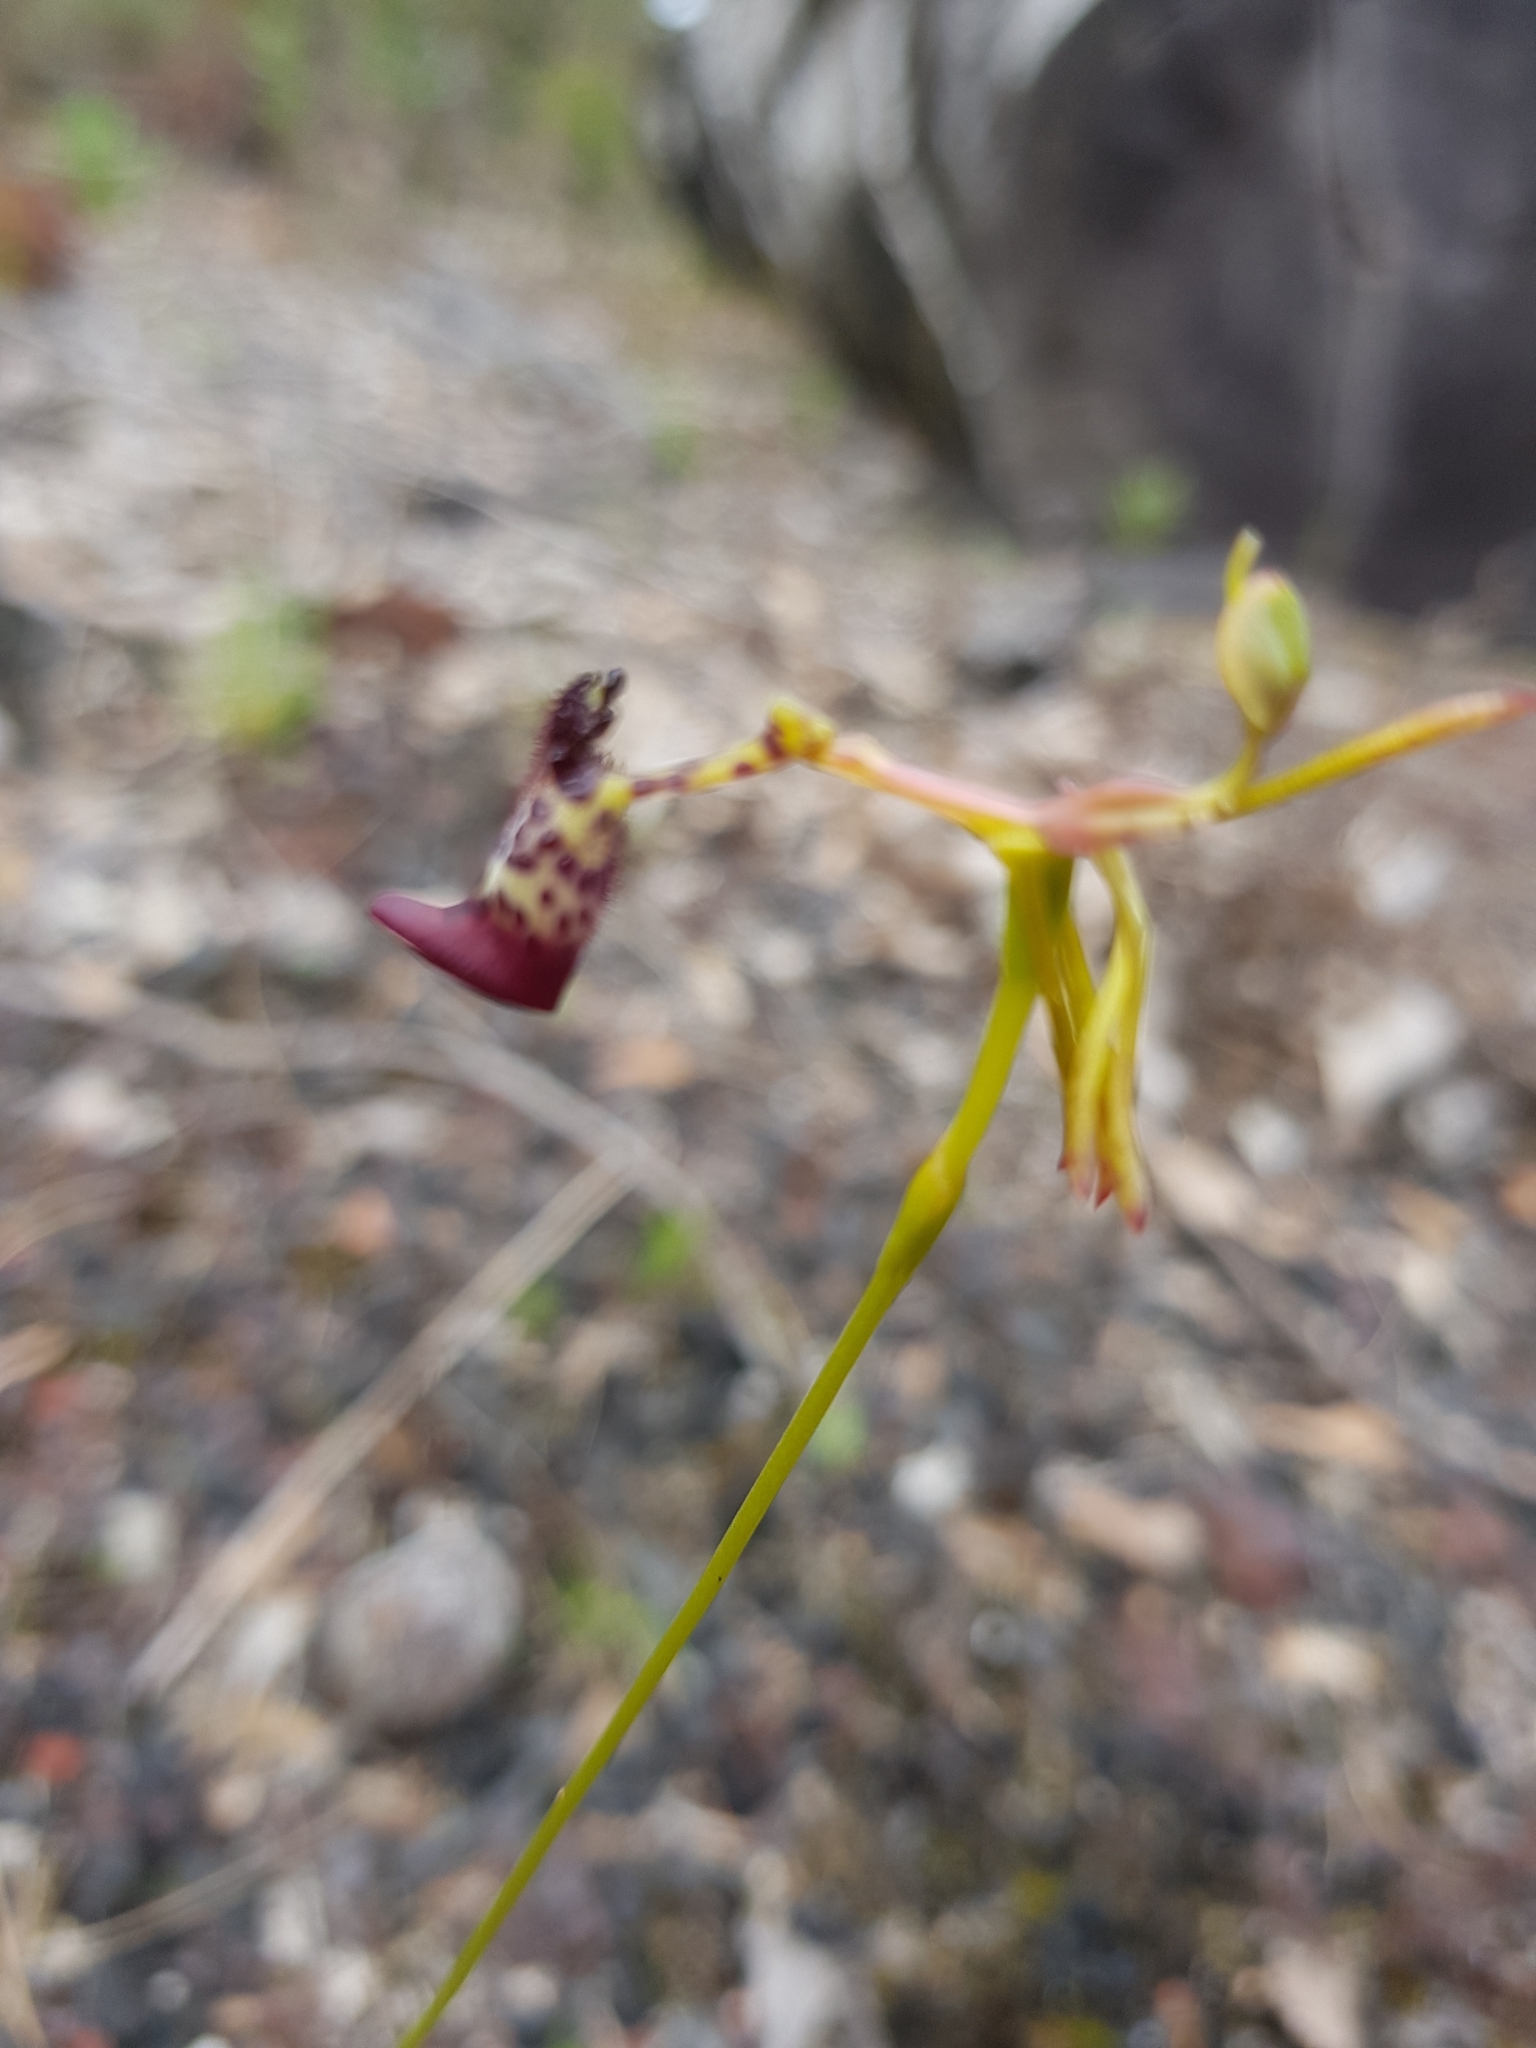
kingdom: Plantae
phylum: Tracheophyta
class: Liliopsida
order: Asparagales
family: Orchidaceae
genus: Drakaea
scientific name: Drakaea livida
